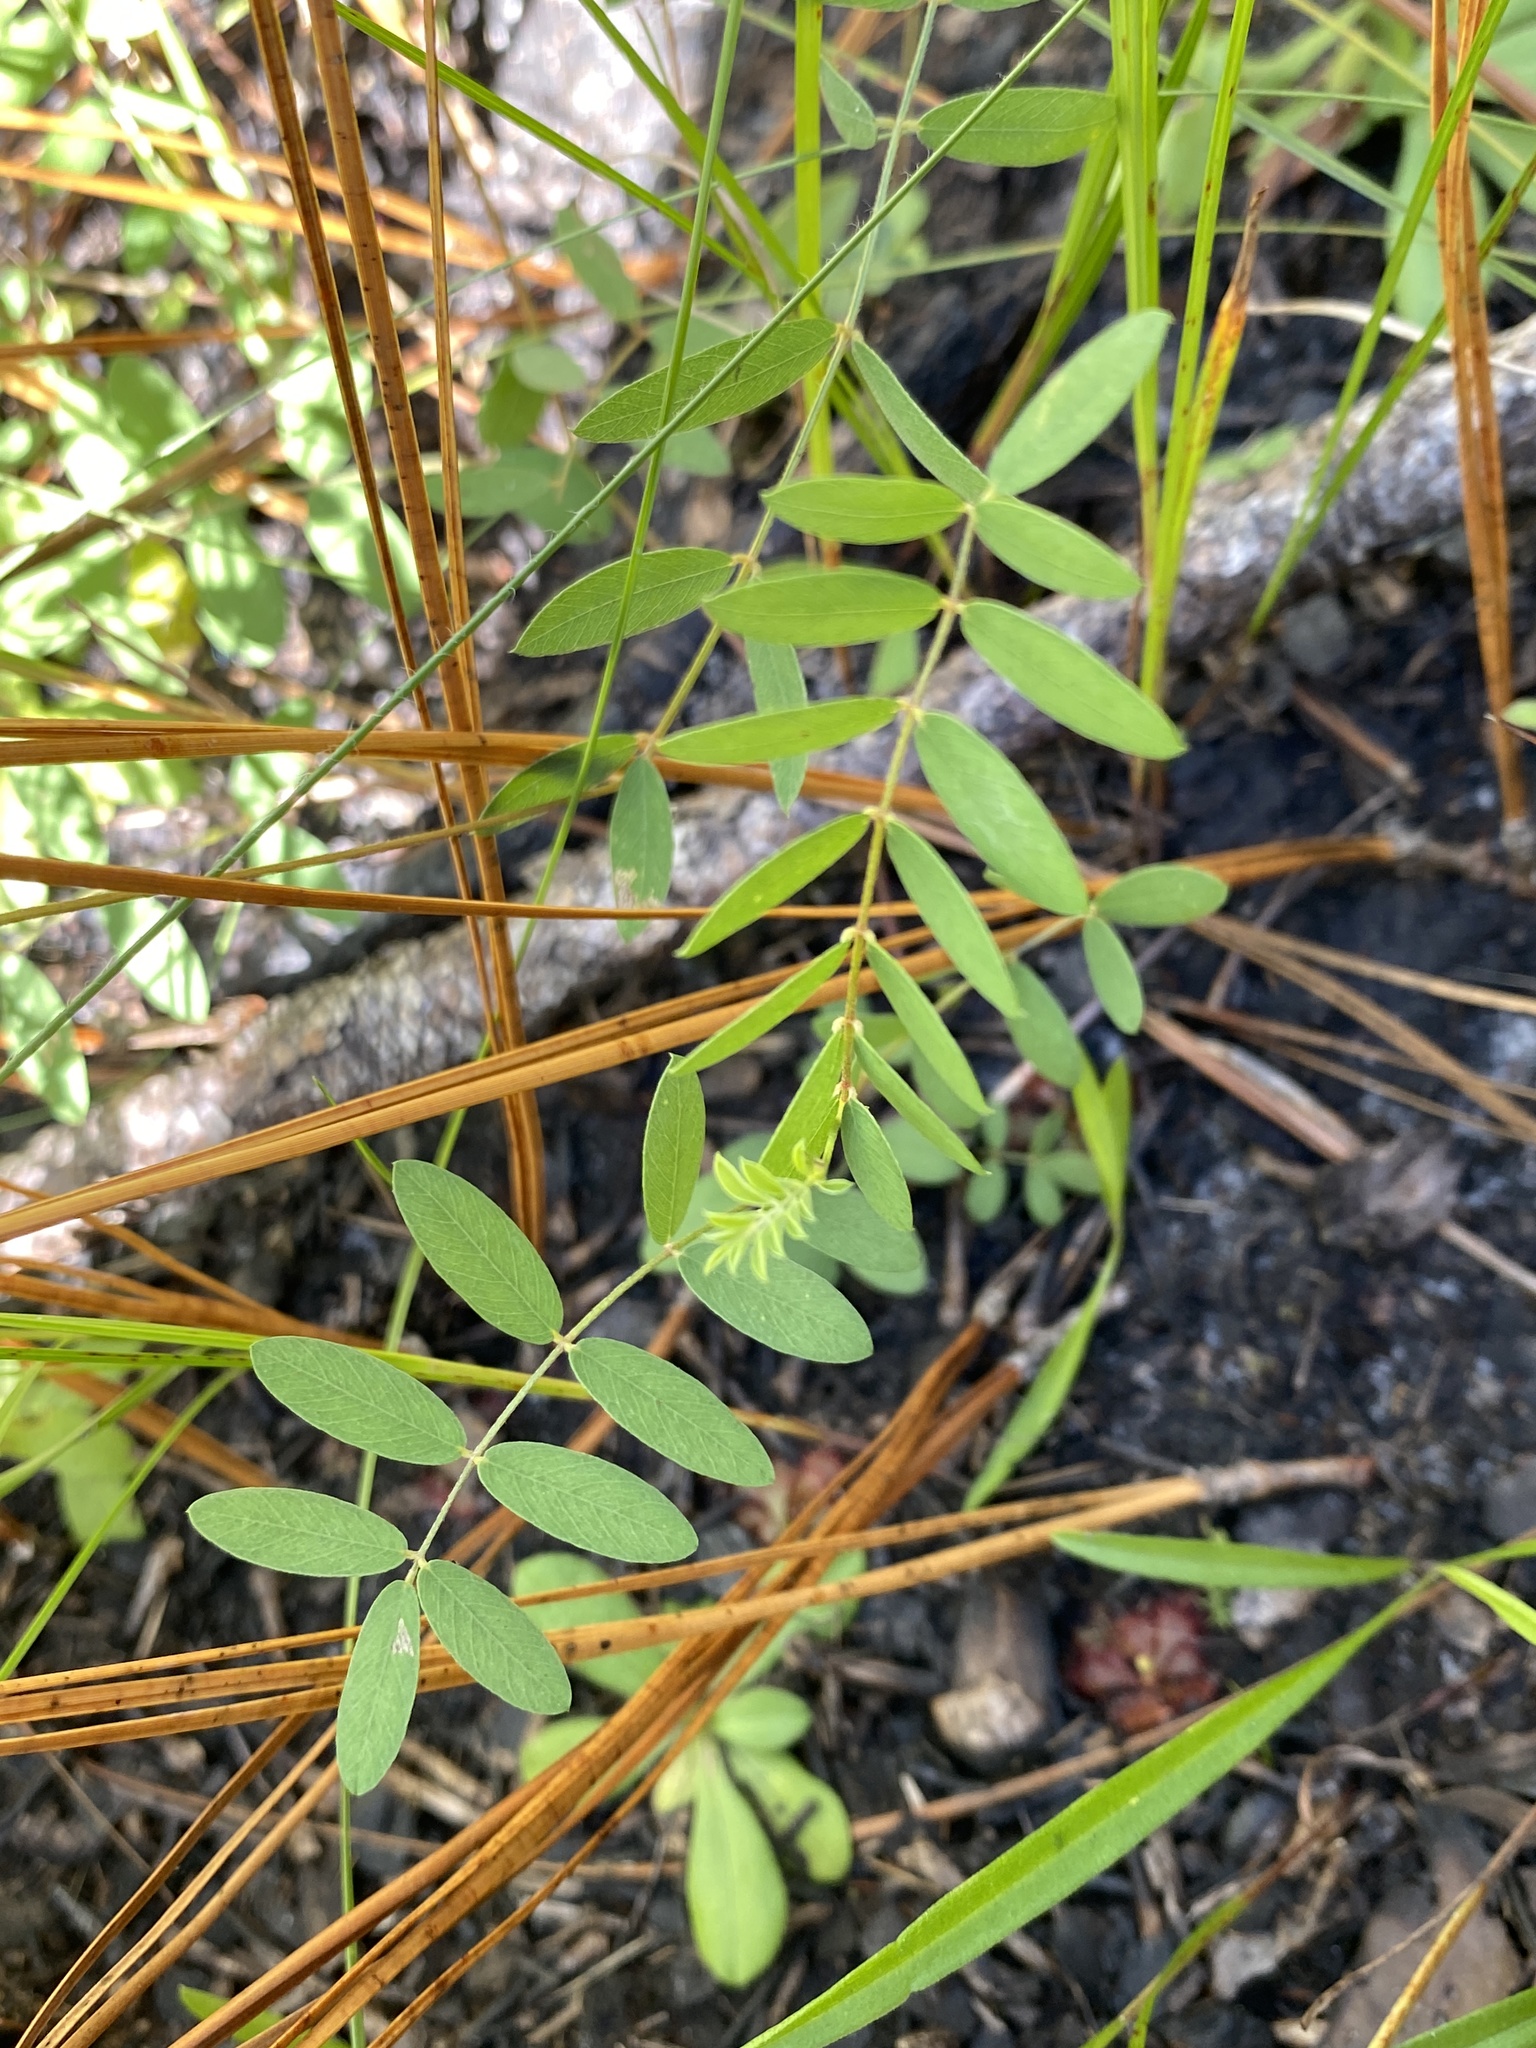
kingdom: Plantae
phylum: Tracheophyta
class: Magnoliopsida
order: Fabales
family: Fabaceae
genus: Tephrosia
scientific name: Tephrosia hispidula
